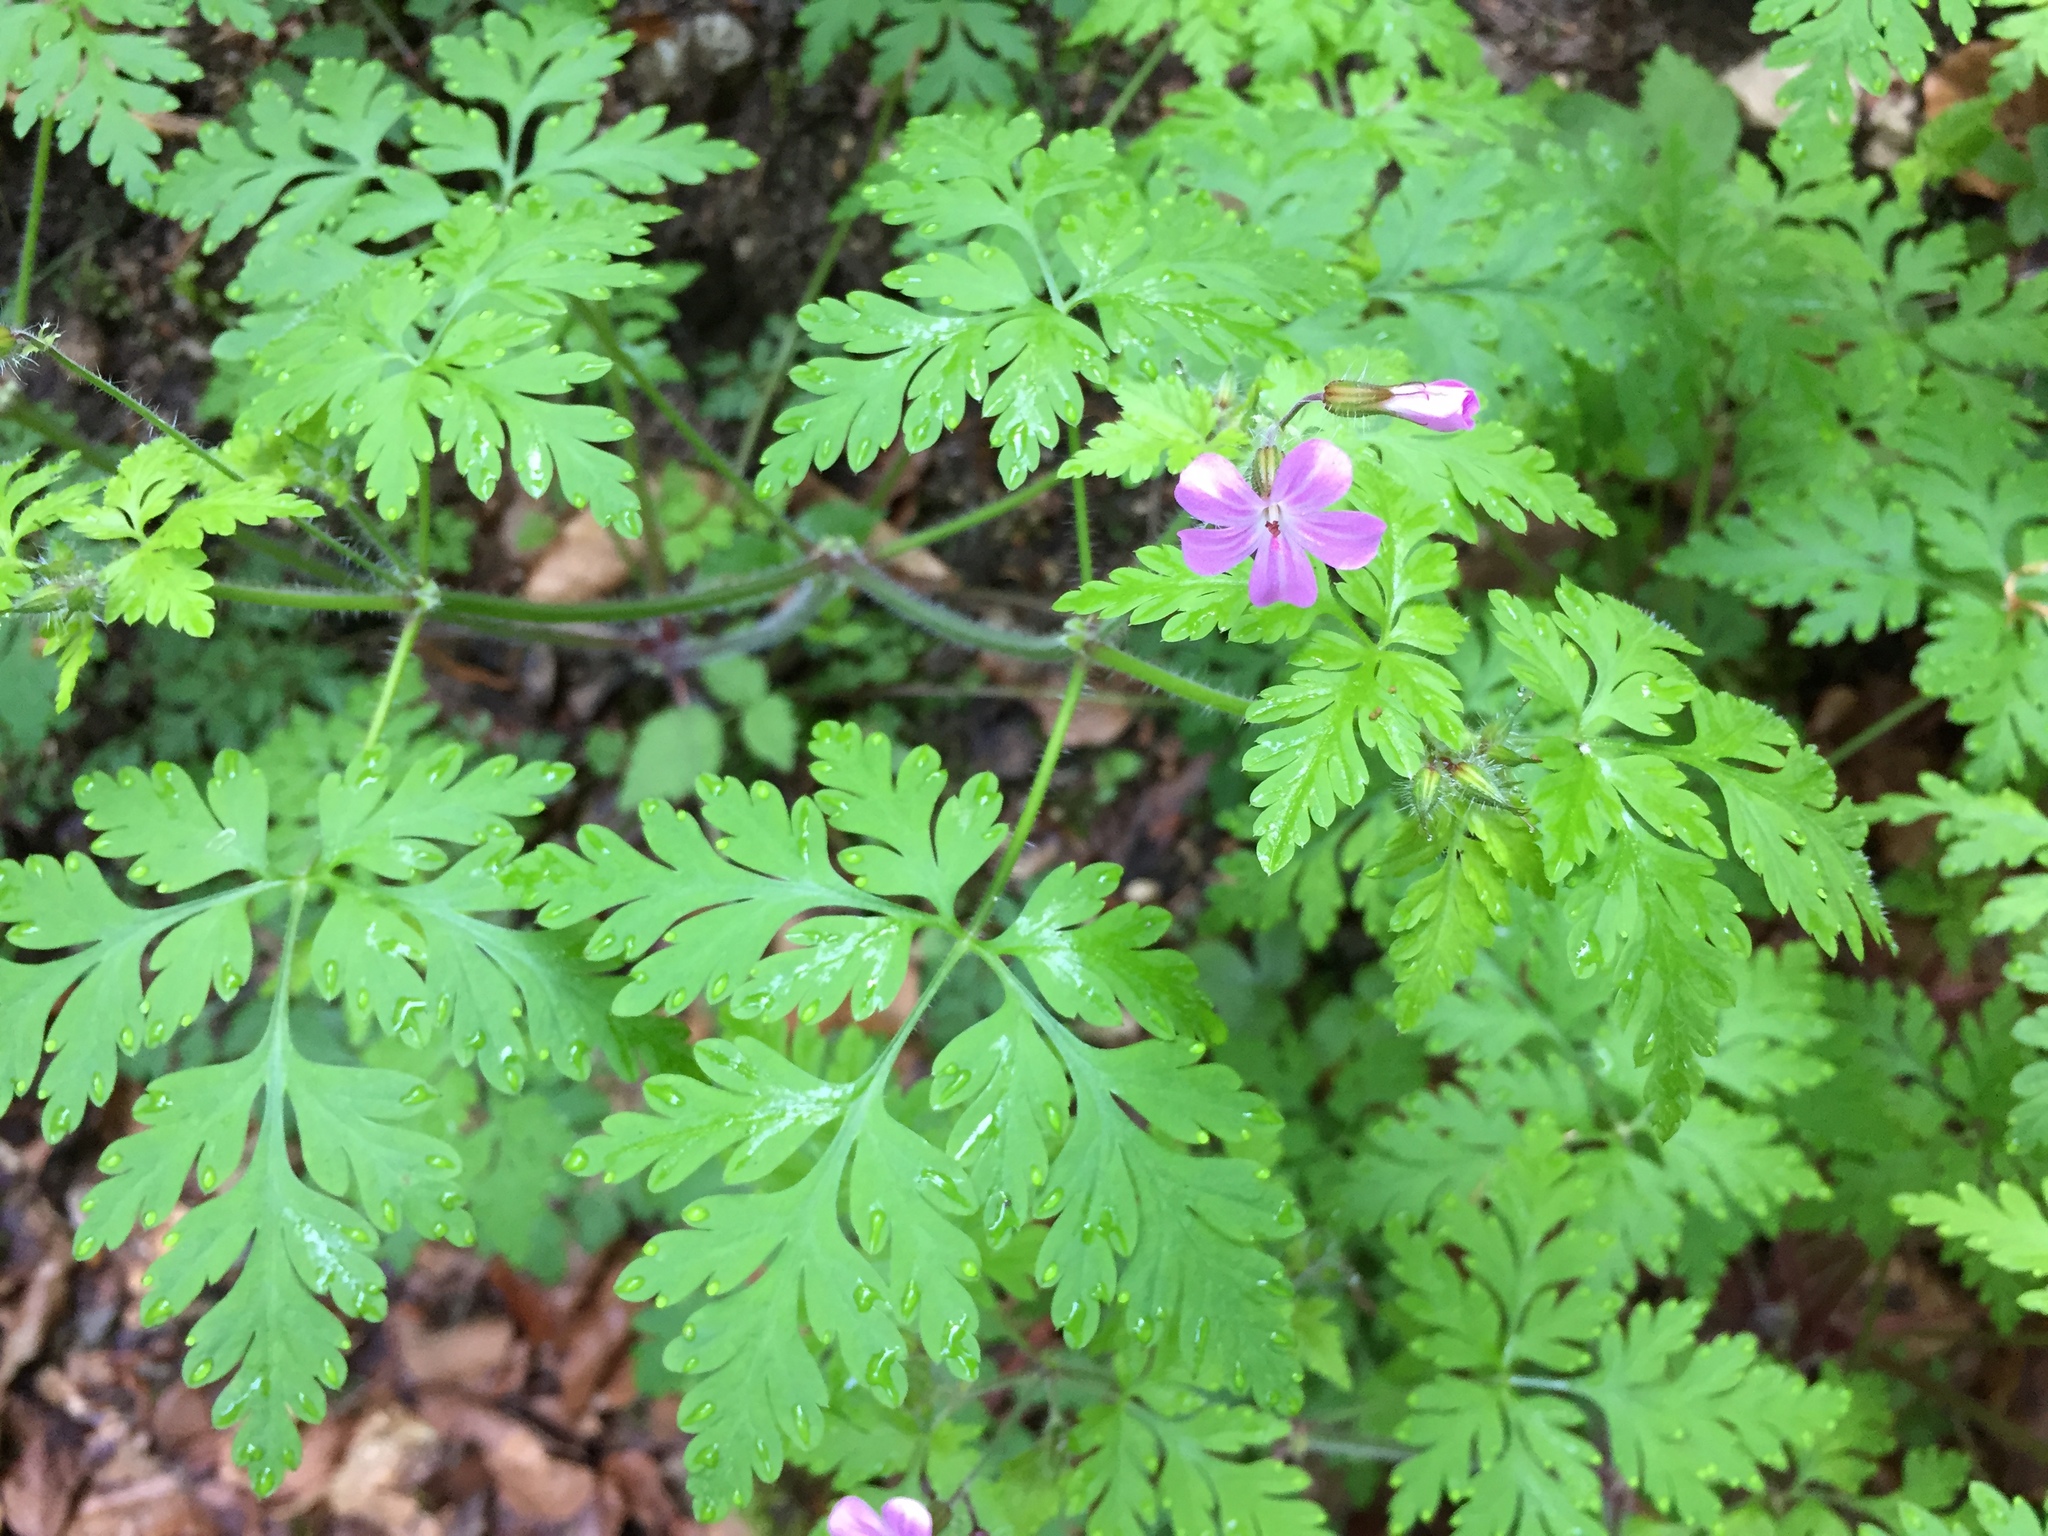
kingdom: Plantae
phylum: Tracheophyta
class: Magnoliopsida
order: Geraniales
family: Geraniaceae
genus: Geranium
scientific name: Geranium robertianum
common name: Herb-robert
